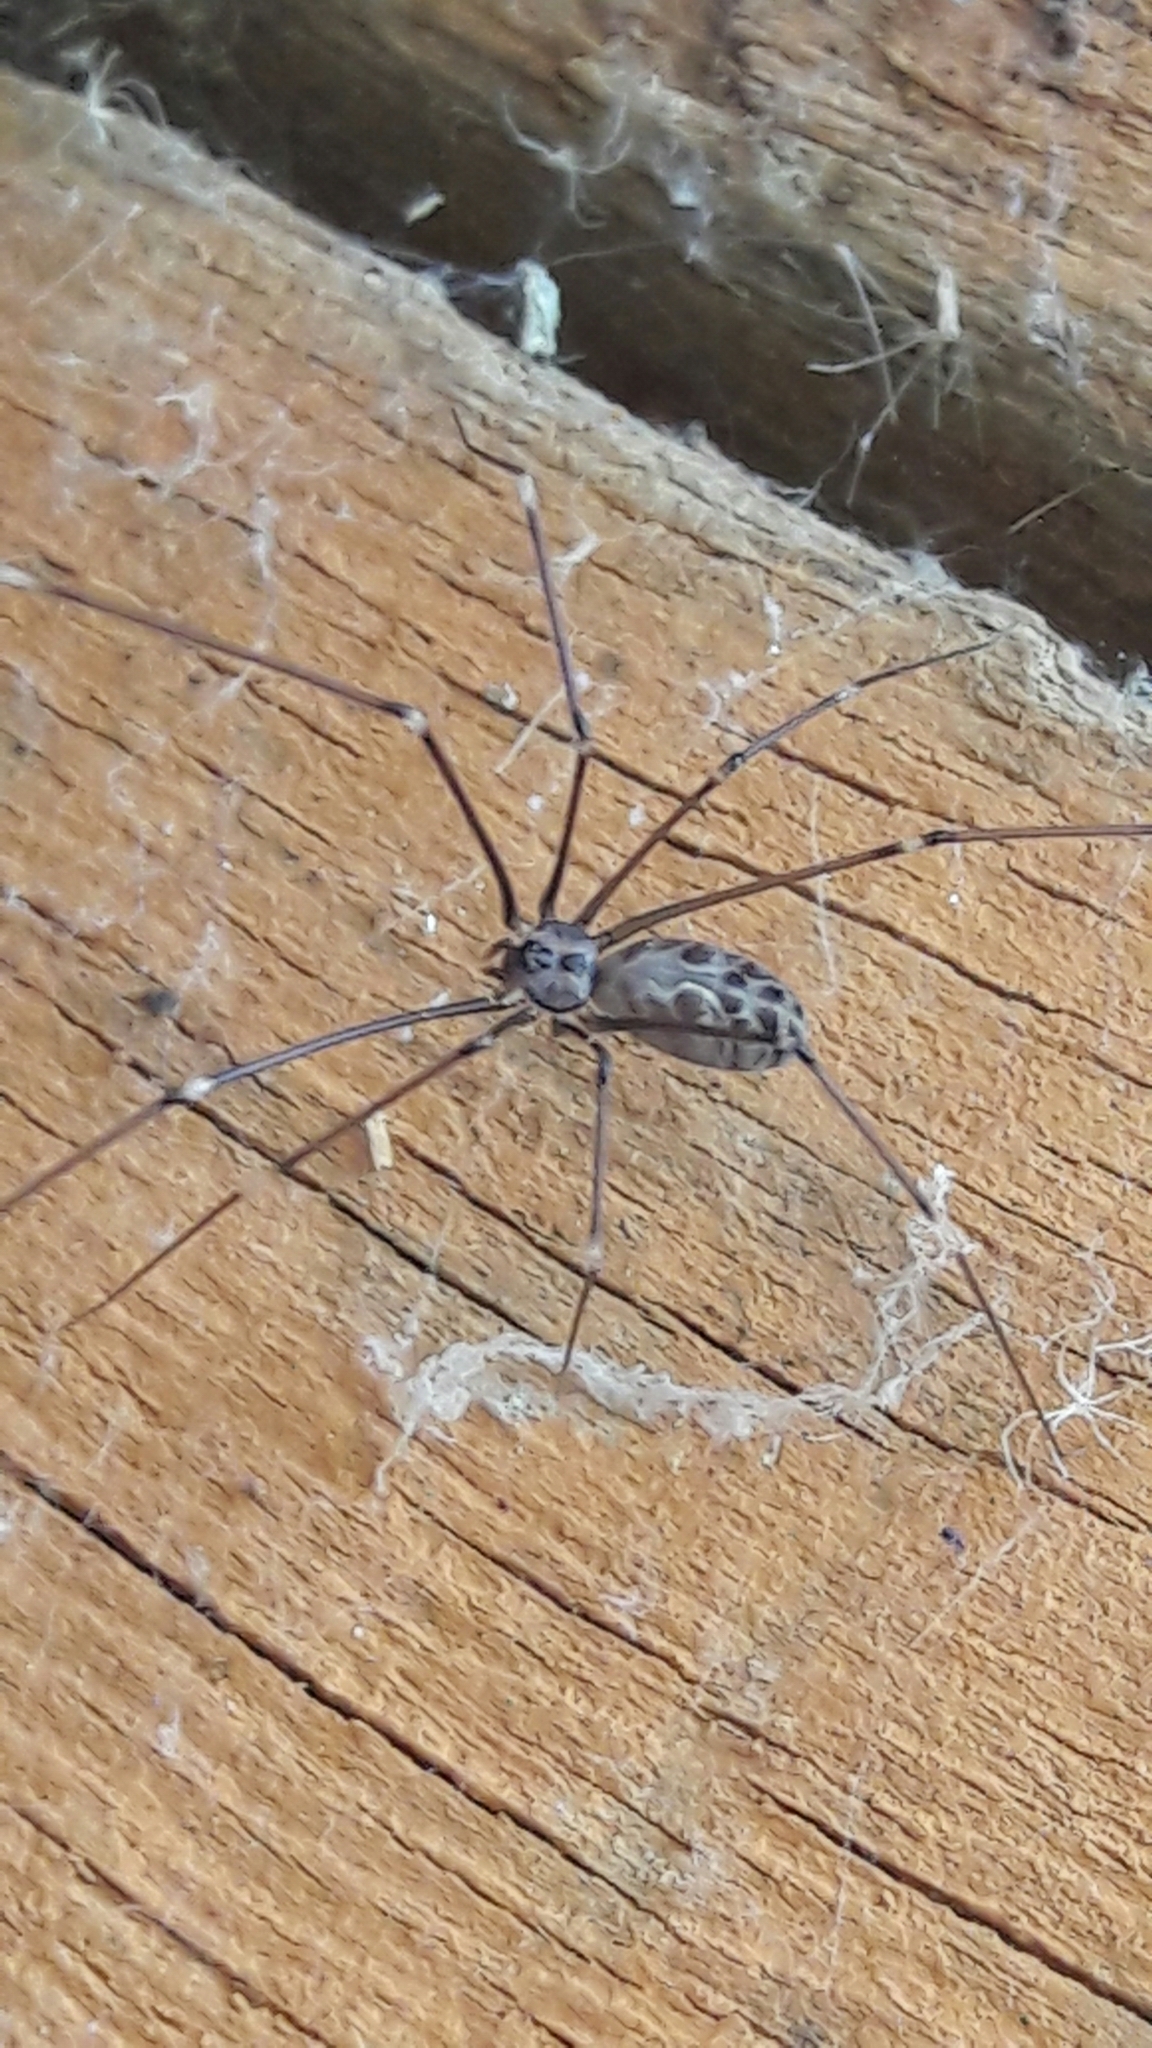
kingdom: Animalia
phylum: Arthropoda
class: Arachnida
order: Araneae
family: Pholcidae
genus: Smeringopus
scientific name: Smeringopus pallidus
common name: Cellar spider
